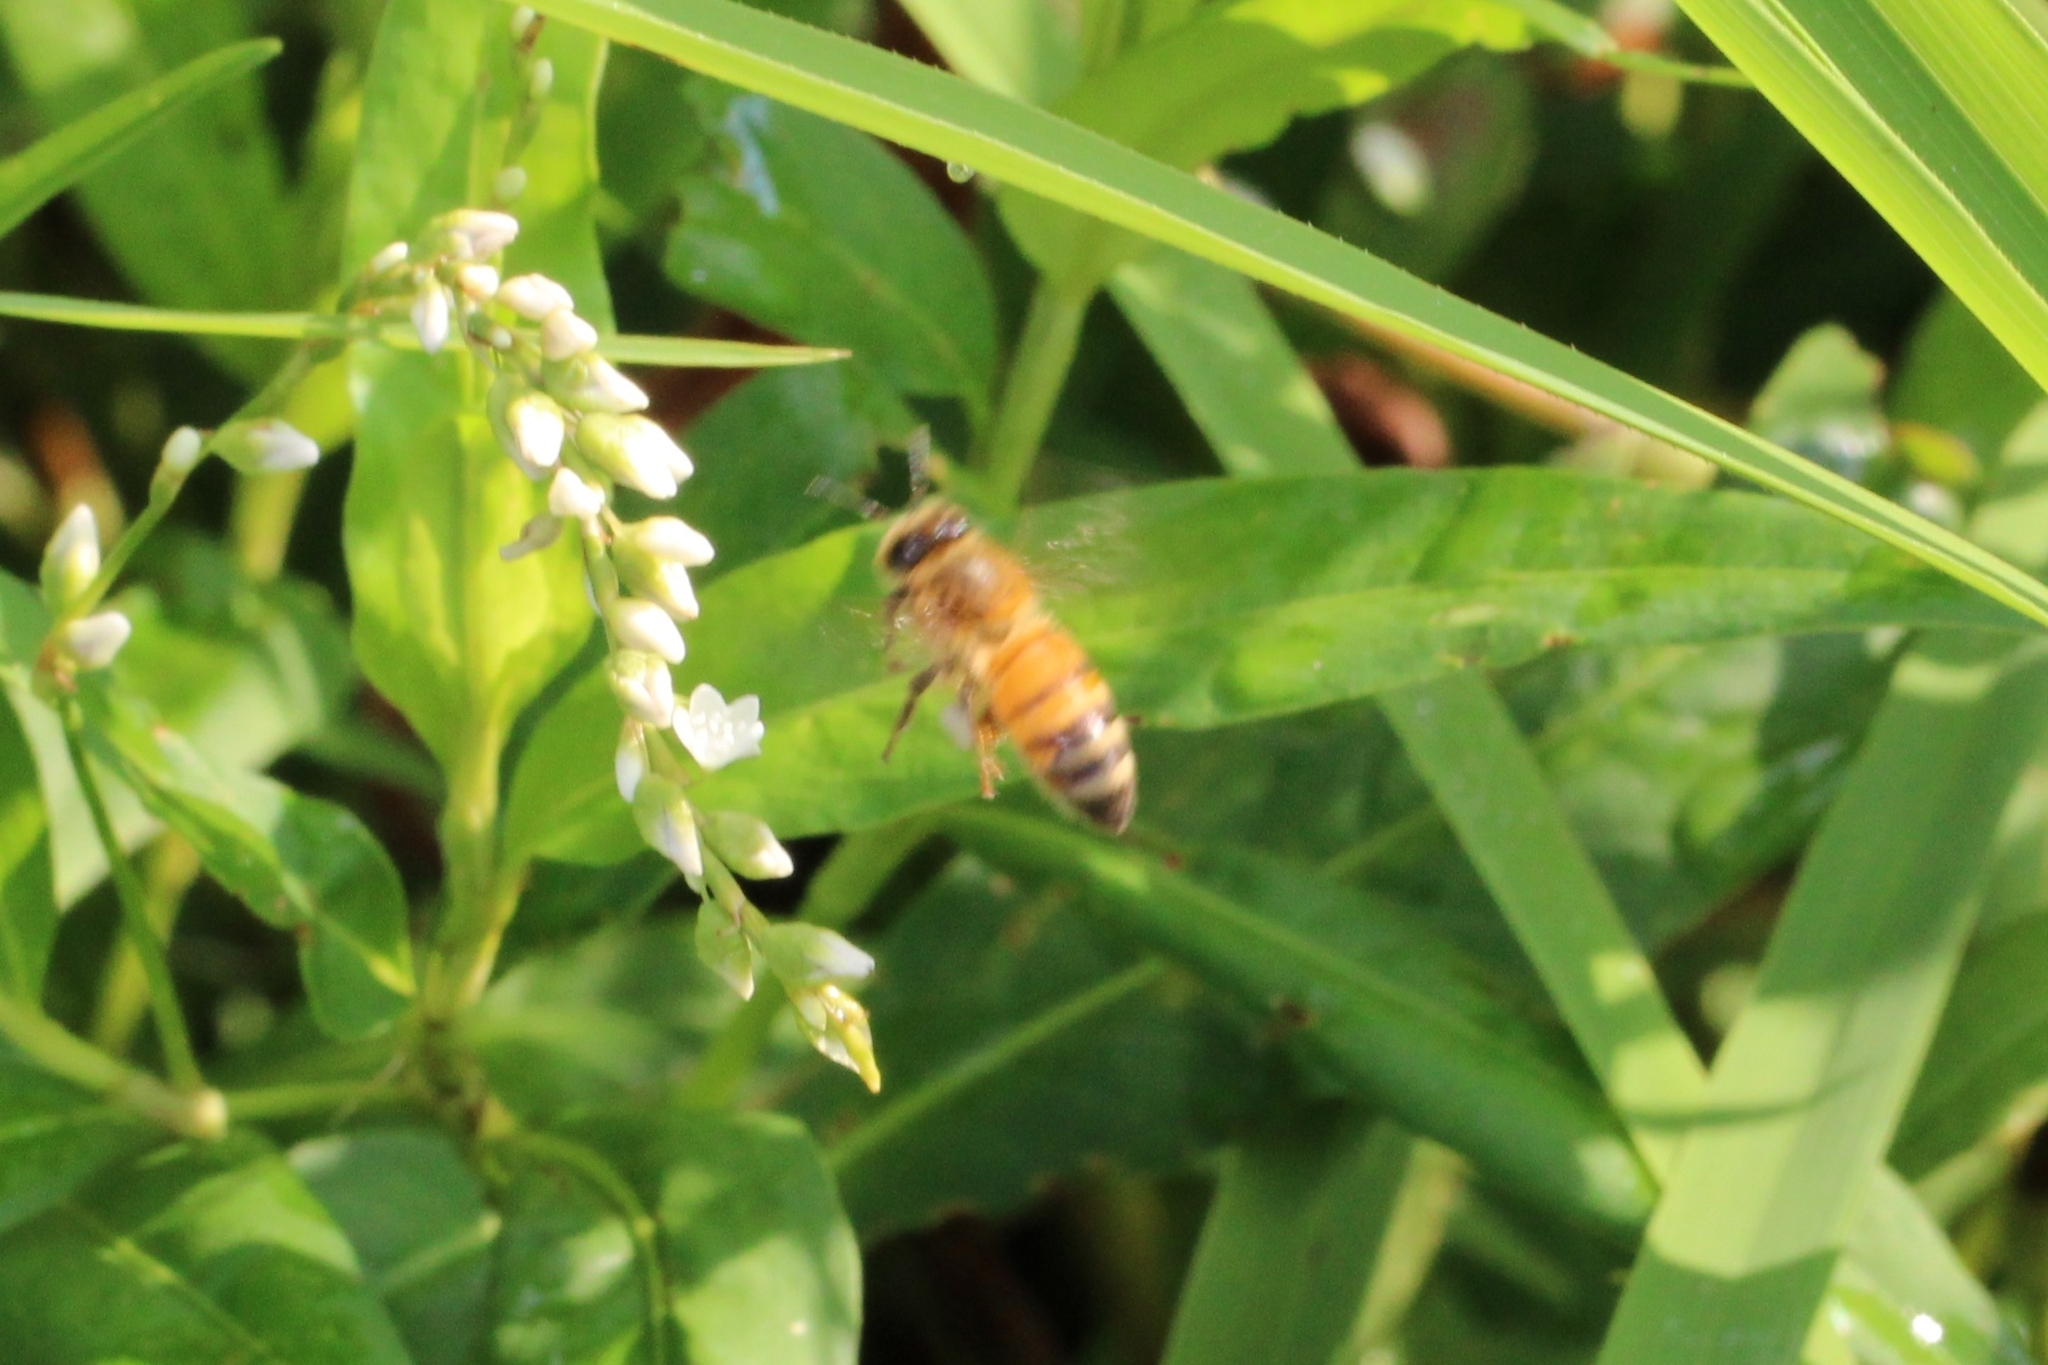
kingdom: Animalia
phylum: Arthropoda
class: Insecta
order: Hymenoptera
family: Apidae
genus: Apis
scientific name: Apis mellifera
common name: Honey bee
